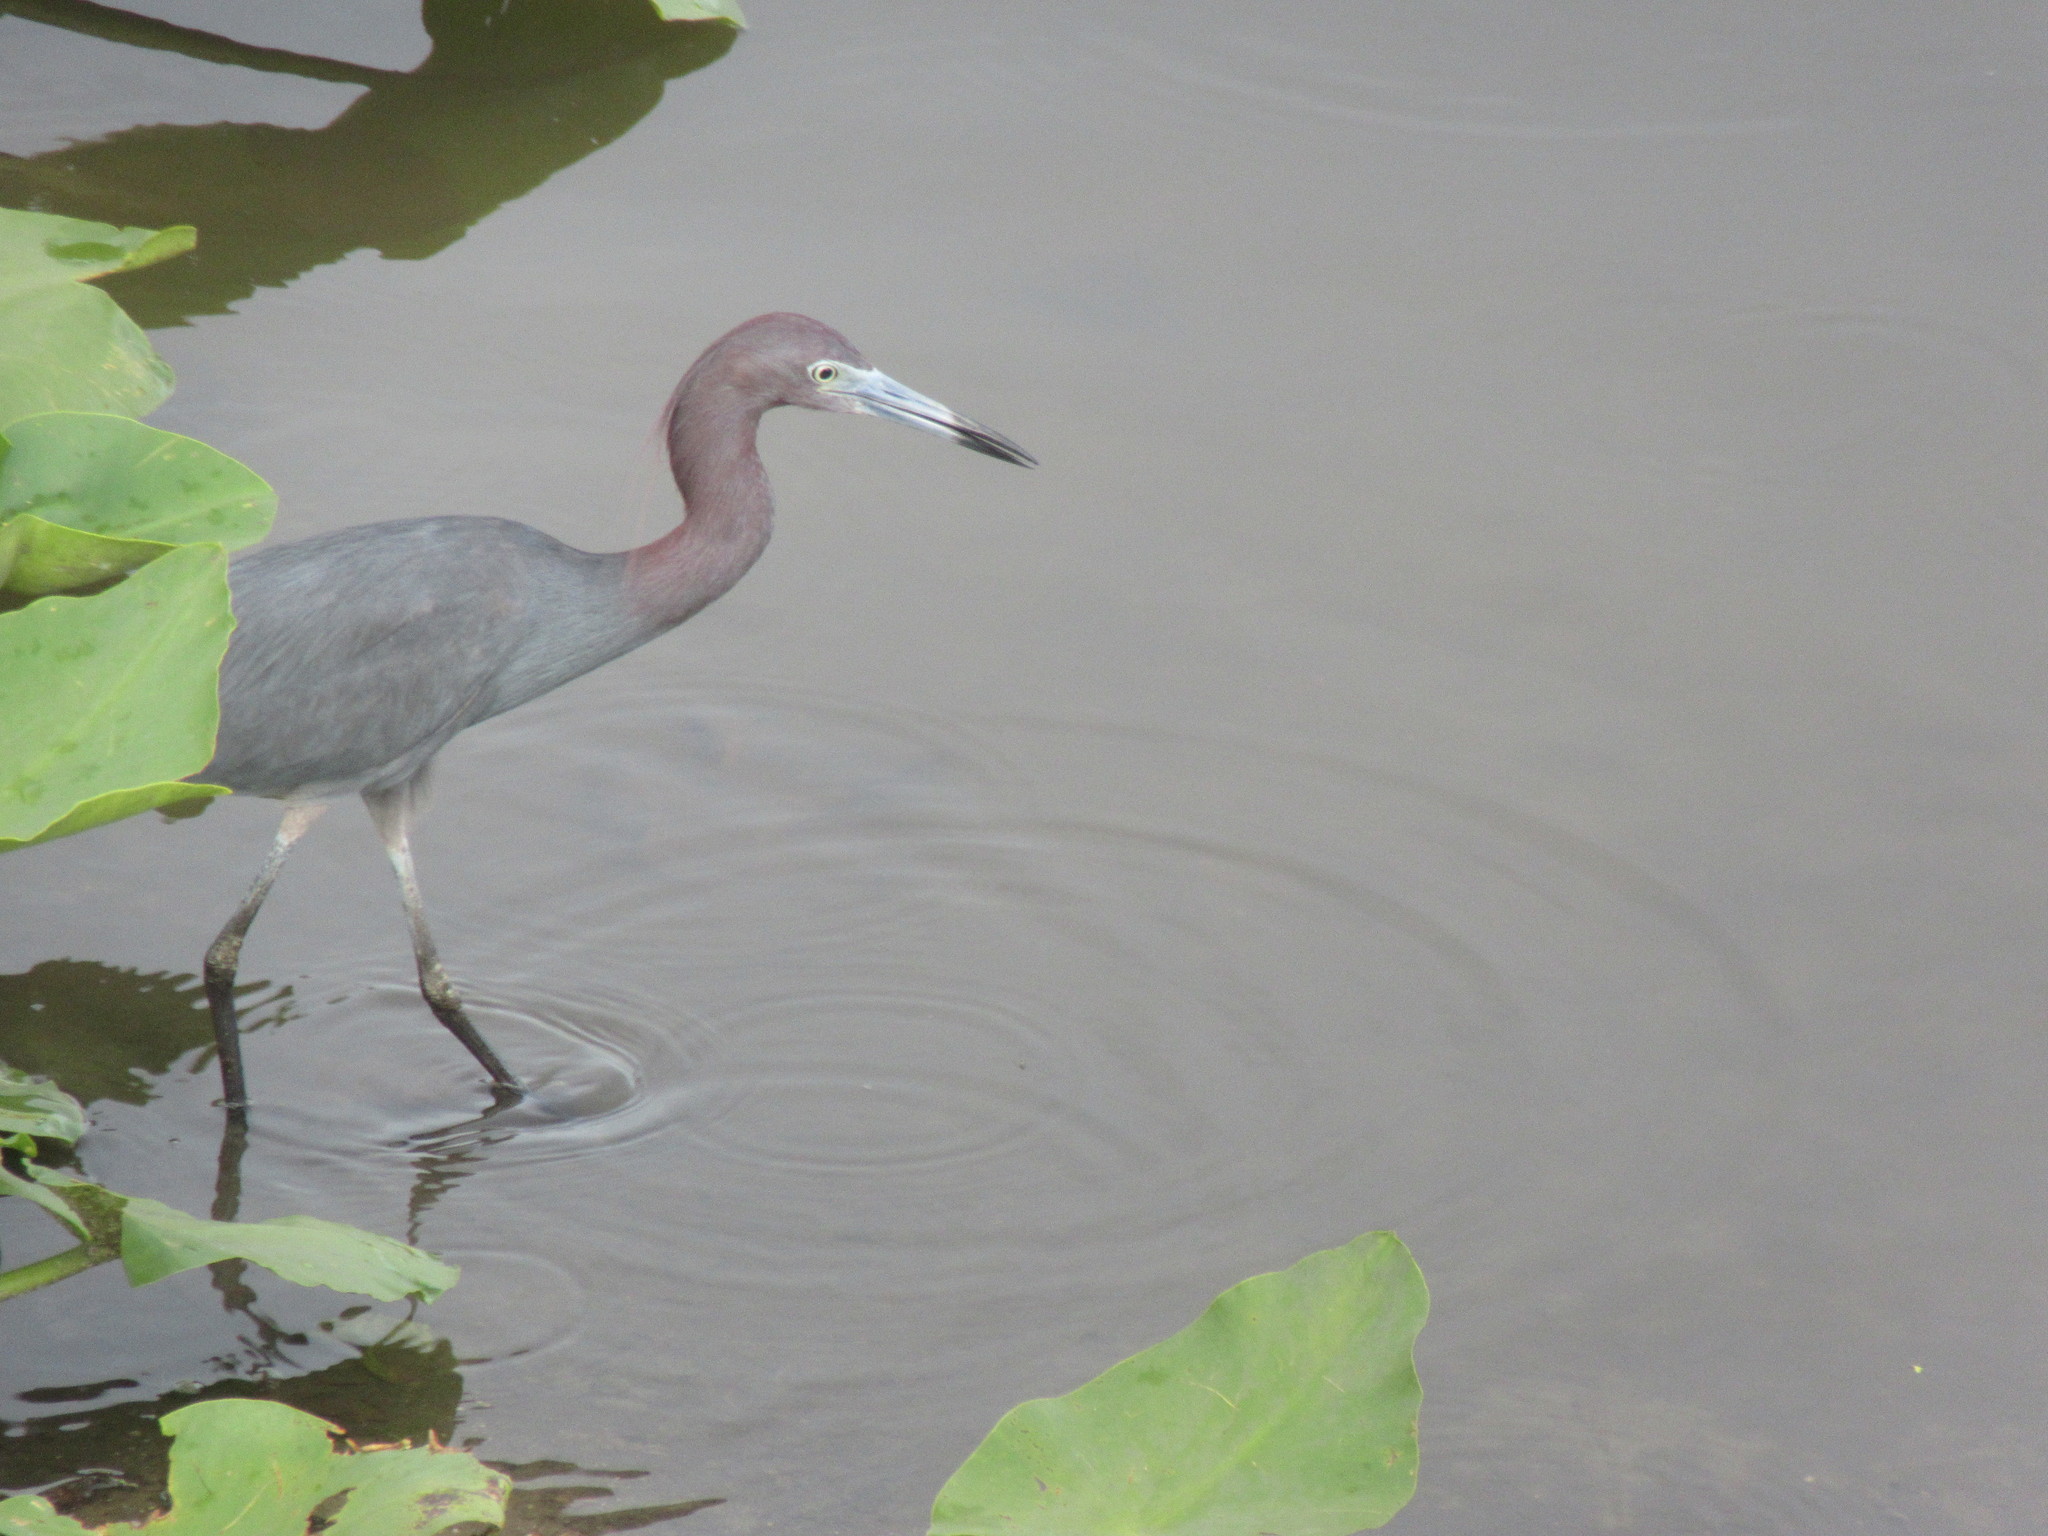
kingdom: Animalia
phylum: Chordata
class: Aves
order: Pelecaniformes
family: Ardeidae
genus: Egretta
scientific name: Egretta caerulea
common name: Little blue heron
